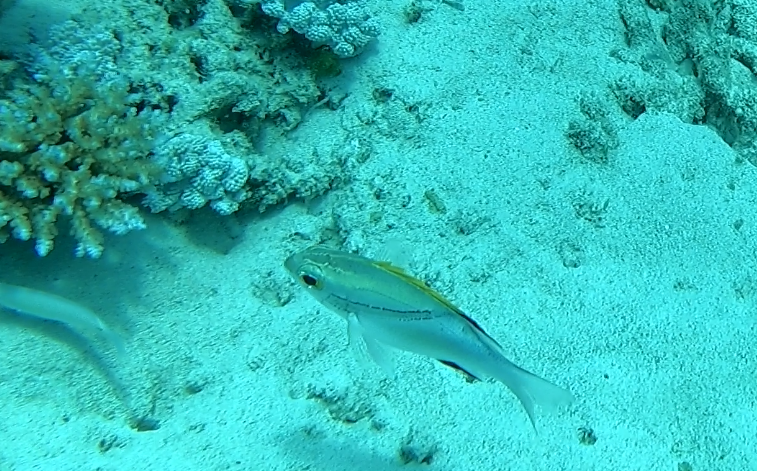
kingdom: Animalia
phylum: Chordata
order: Perciformes
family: Nemipteridae
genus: Scolopsis
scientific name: Scolopsis bilineata
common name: Two-lined monocle bream
